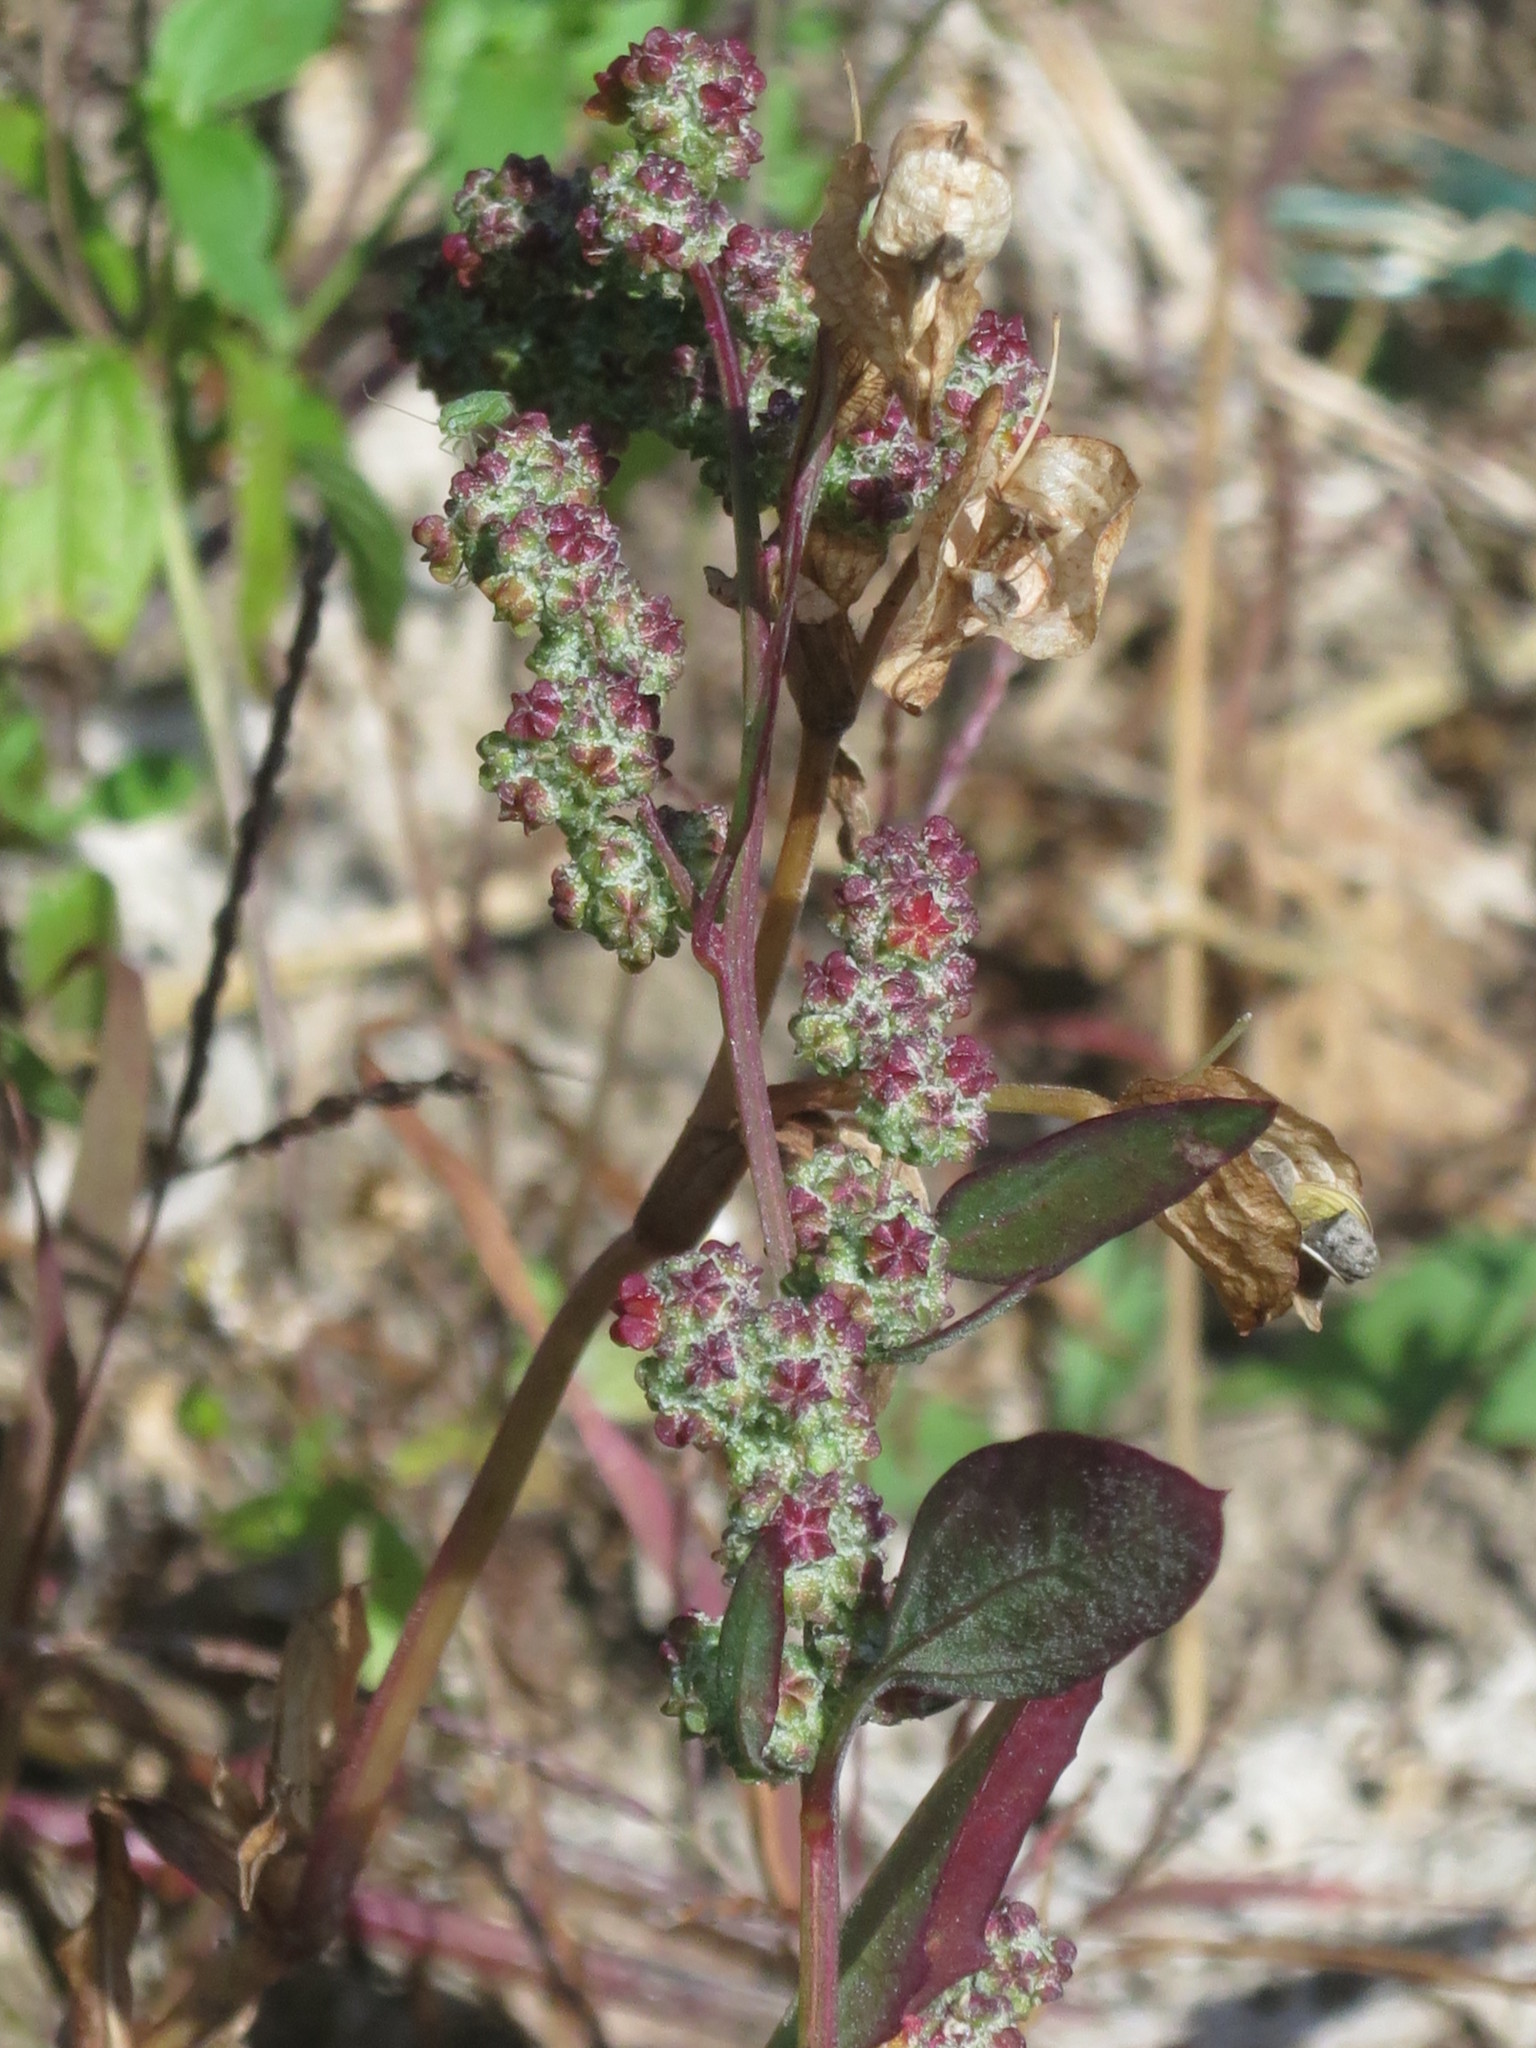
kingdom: Plantae
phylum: Tracheophyta
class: Magnoliopsida
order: Caryophyllales
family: Amaranthaceae
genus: Chenopodium
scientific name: Chenopodium album
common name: Fat-hen
